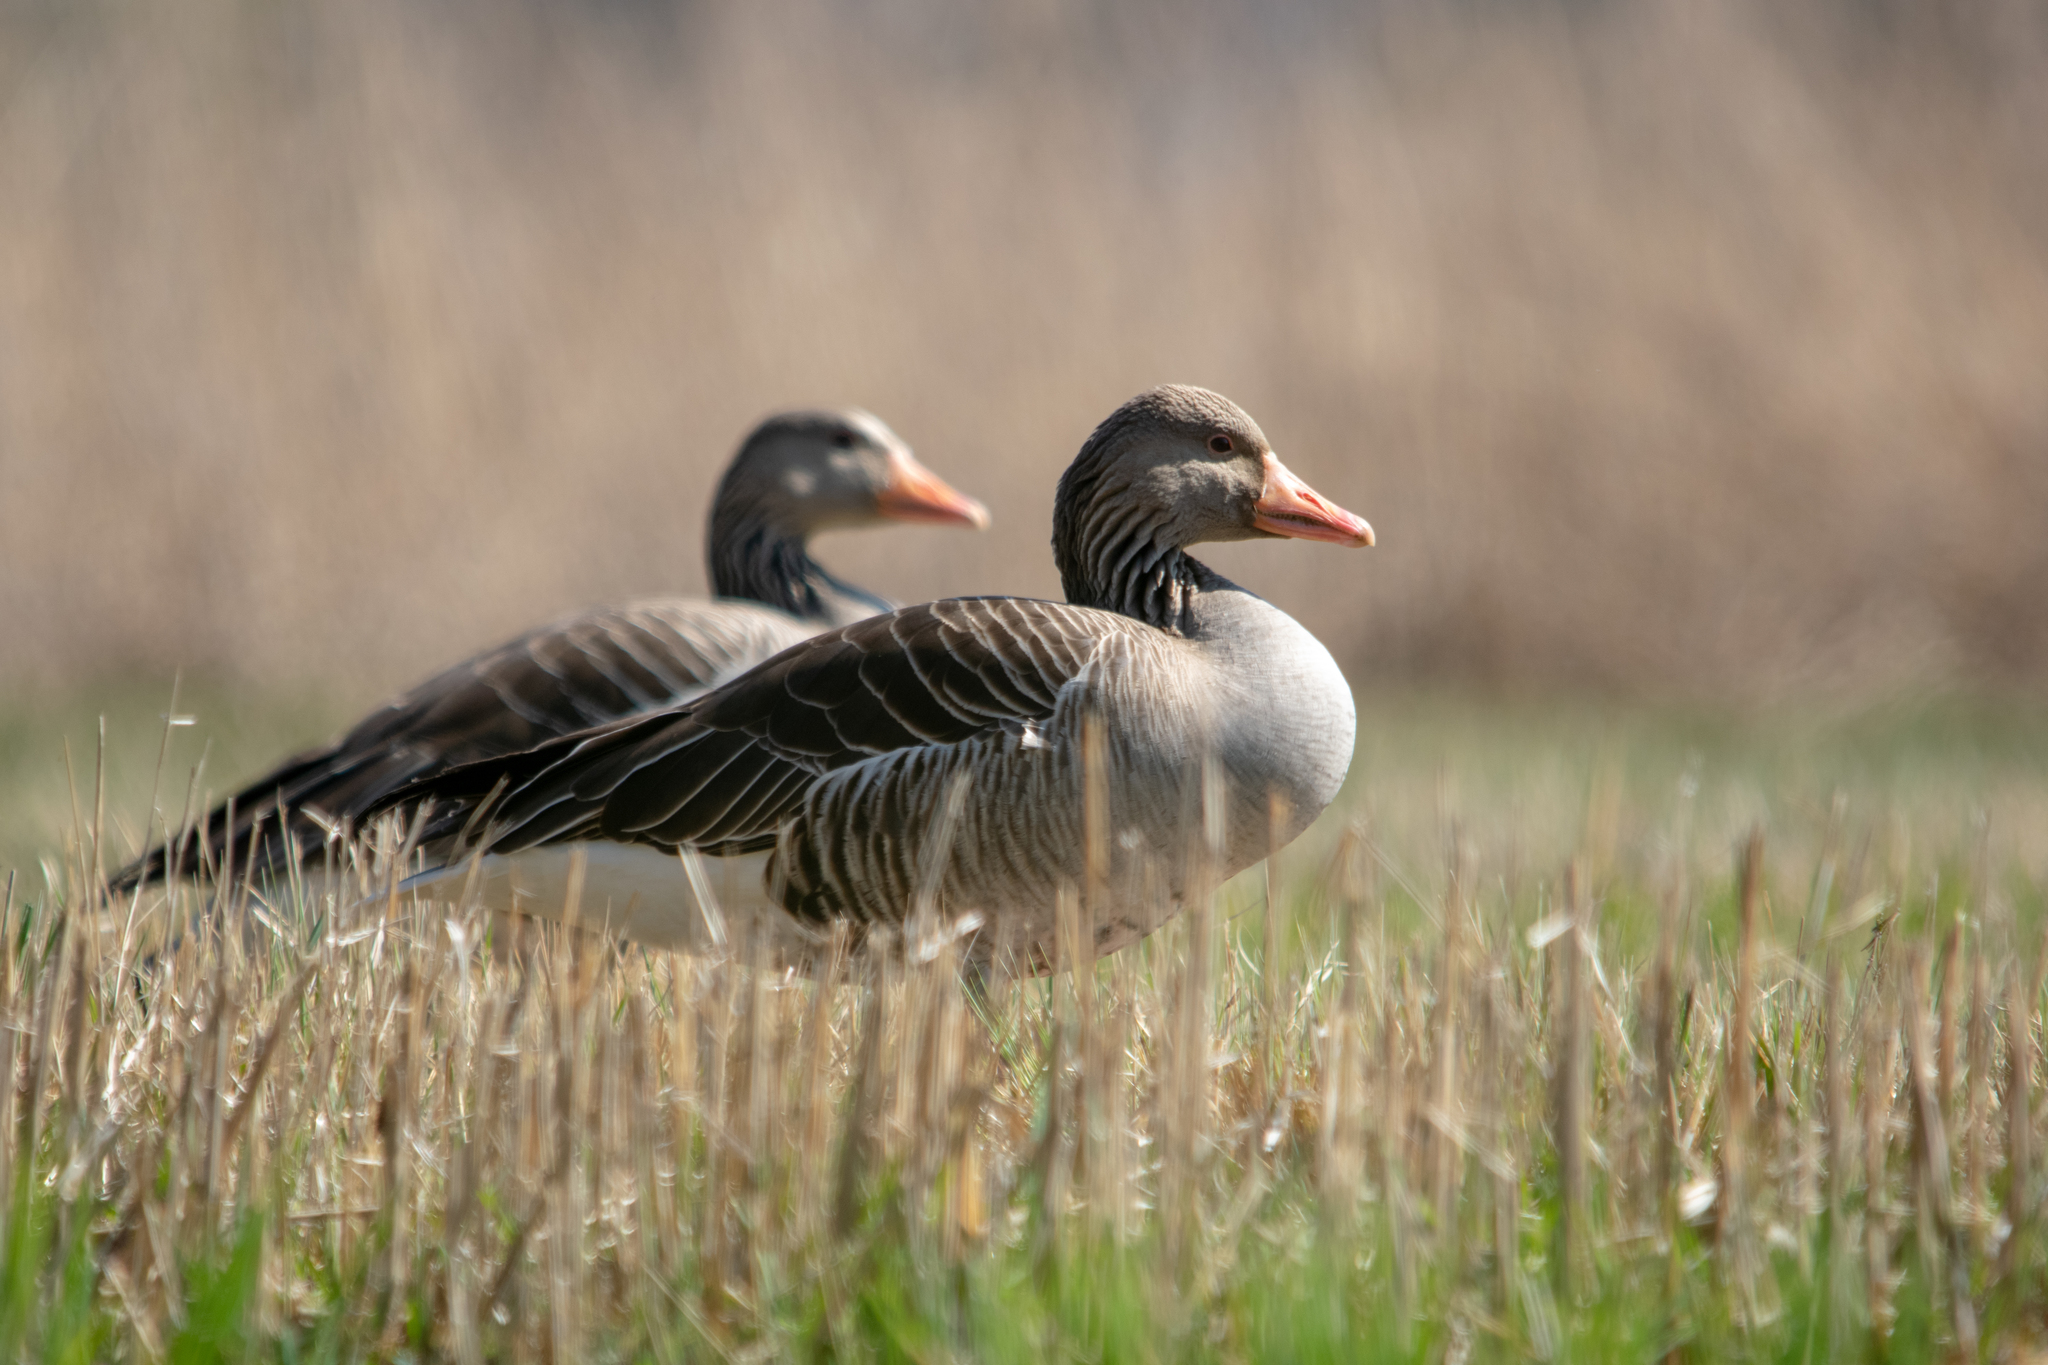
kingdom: Animalia
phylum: Chordata
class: Aves
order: Anseriformes
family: Anatidae
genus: Anser
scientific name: Anser anser
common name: Greylag goose
